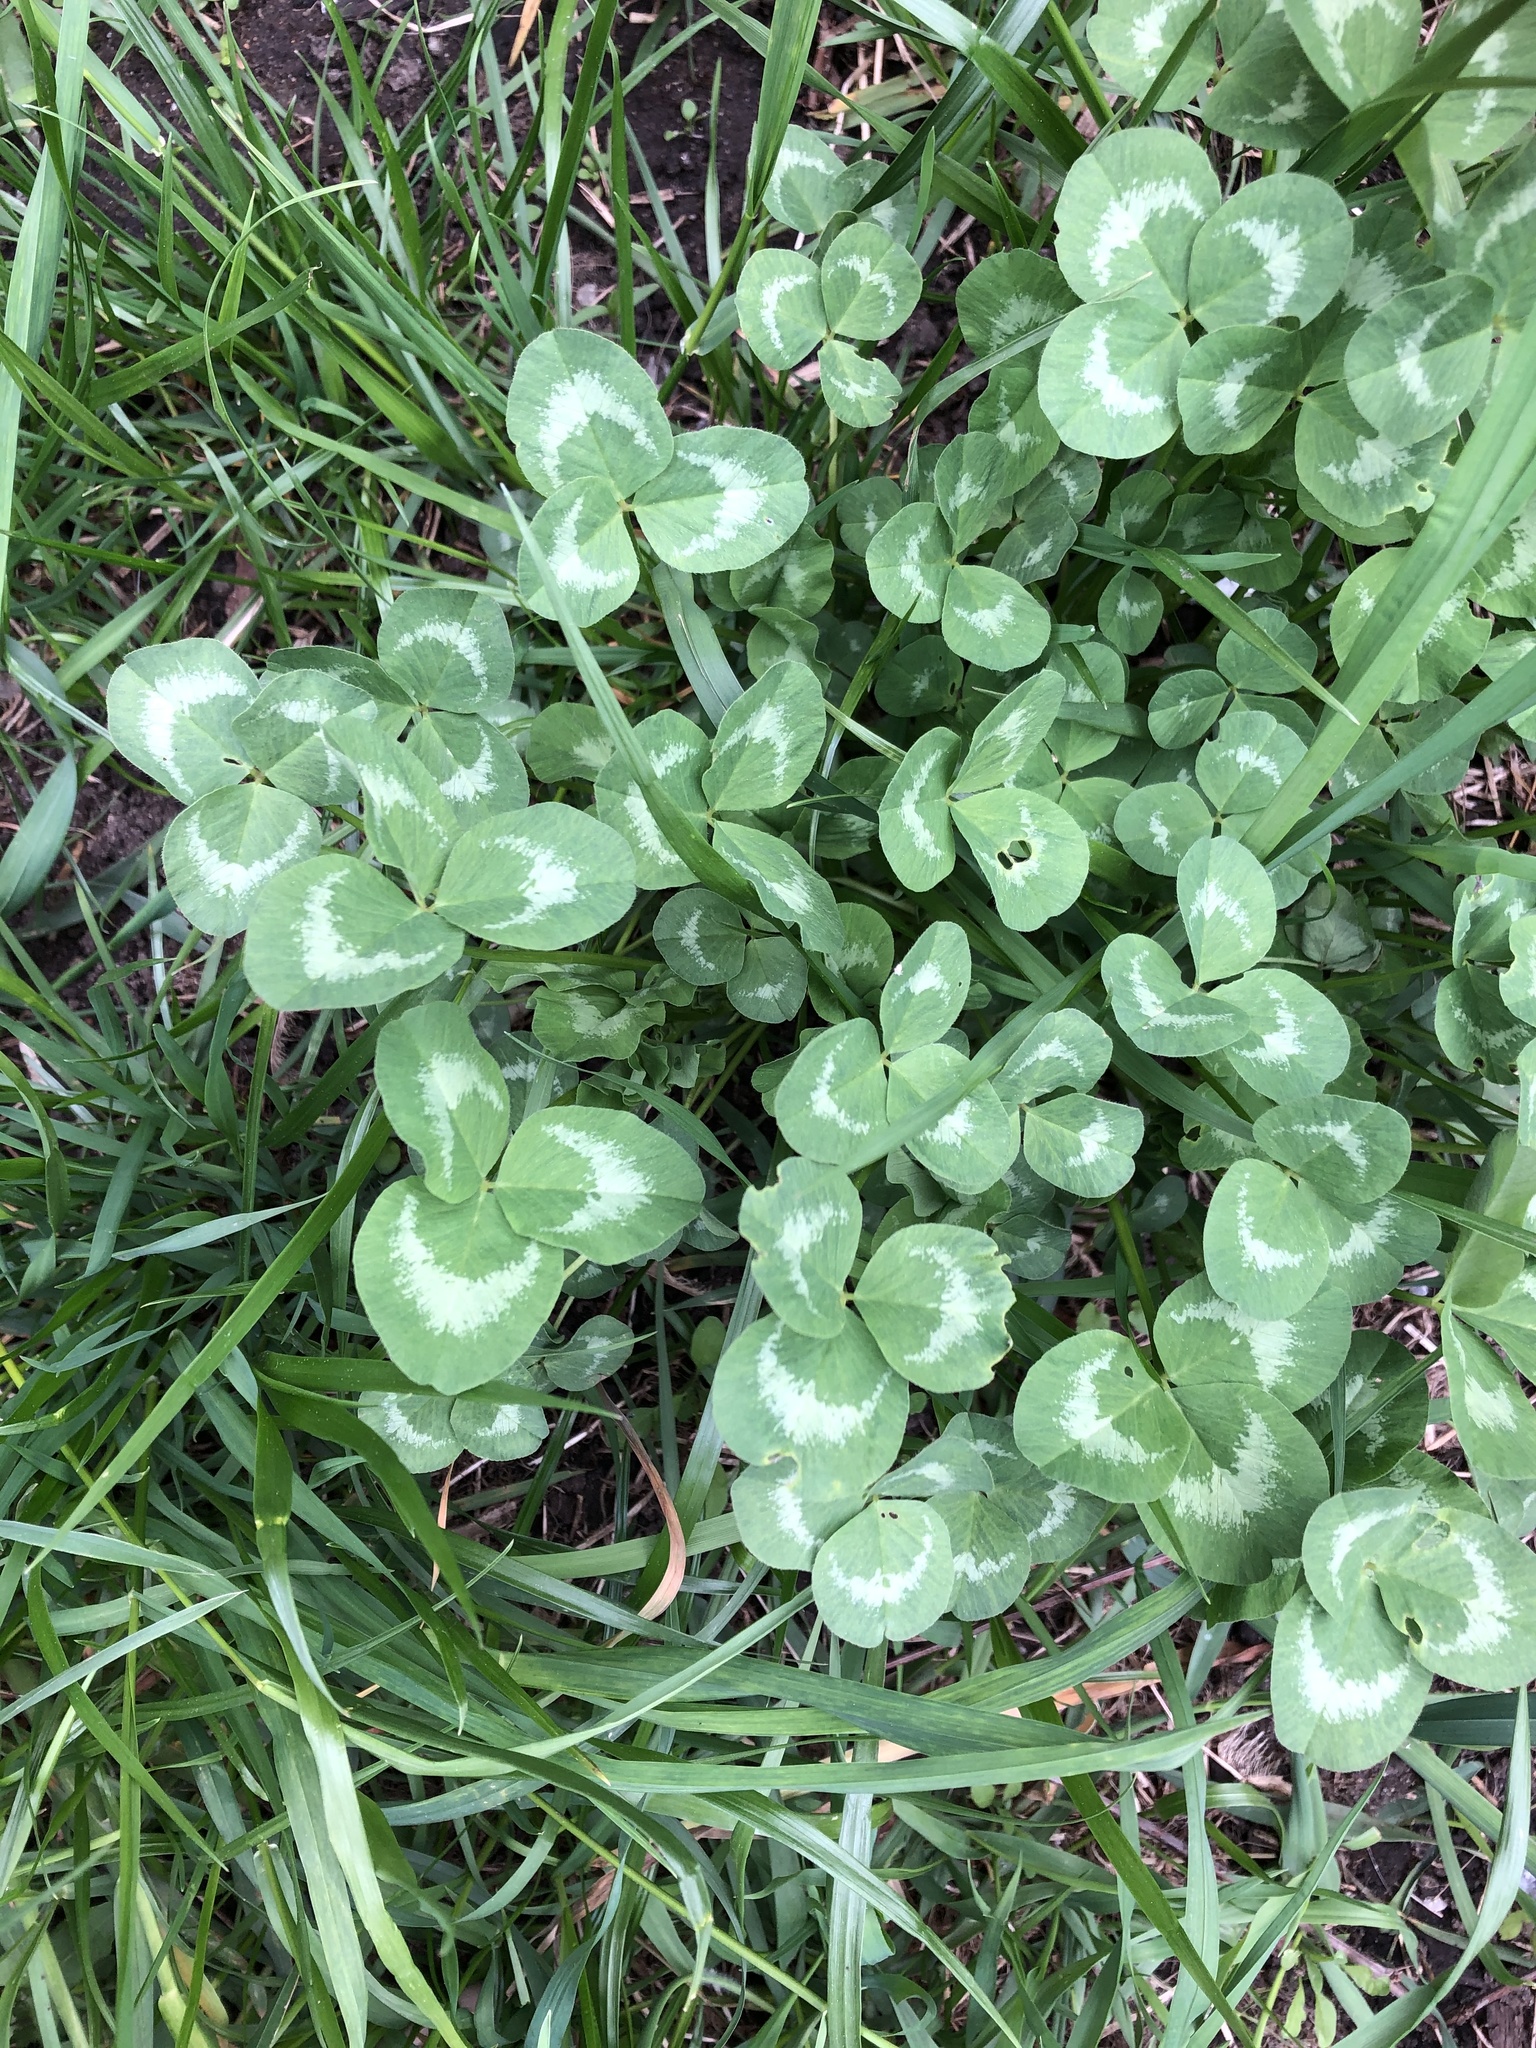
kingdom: Plantae
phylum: Tracheophyta
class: Magnoliopsida
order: Fabales
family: Fabaceae
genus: Trifolium
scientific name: Trifolium repens
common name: White clover
